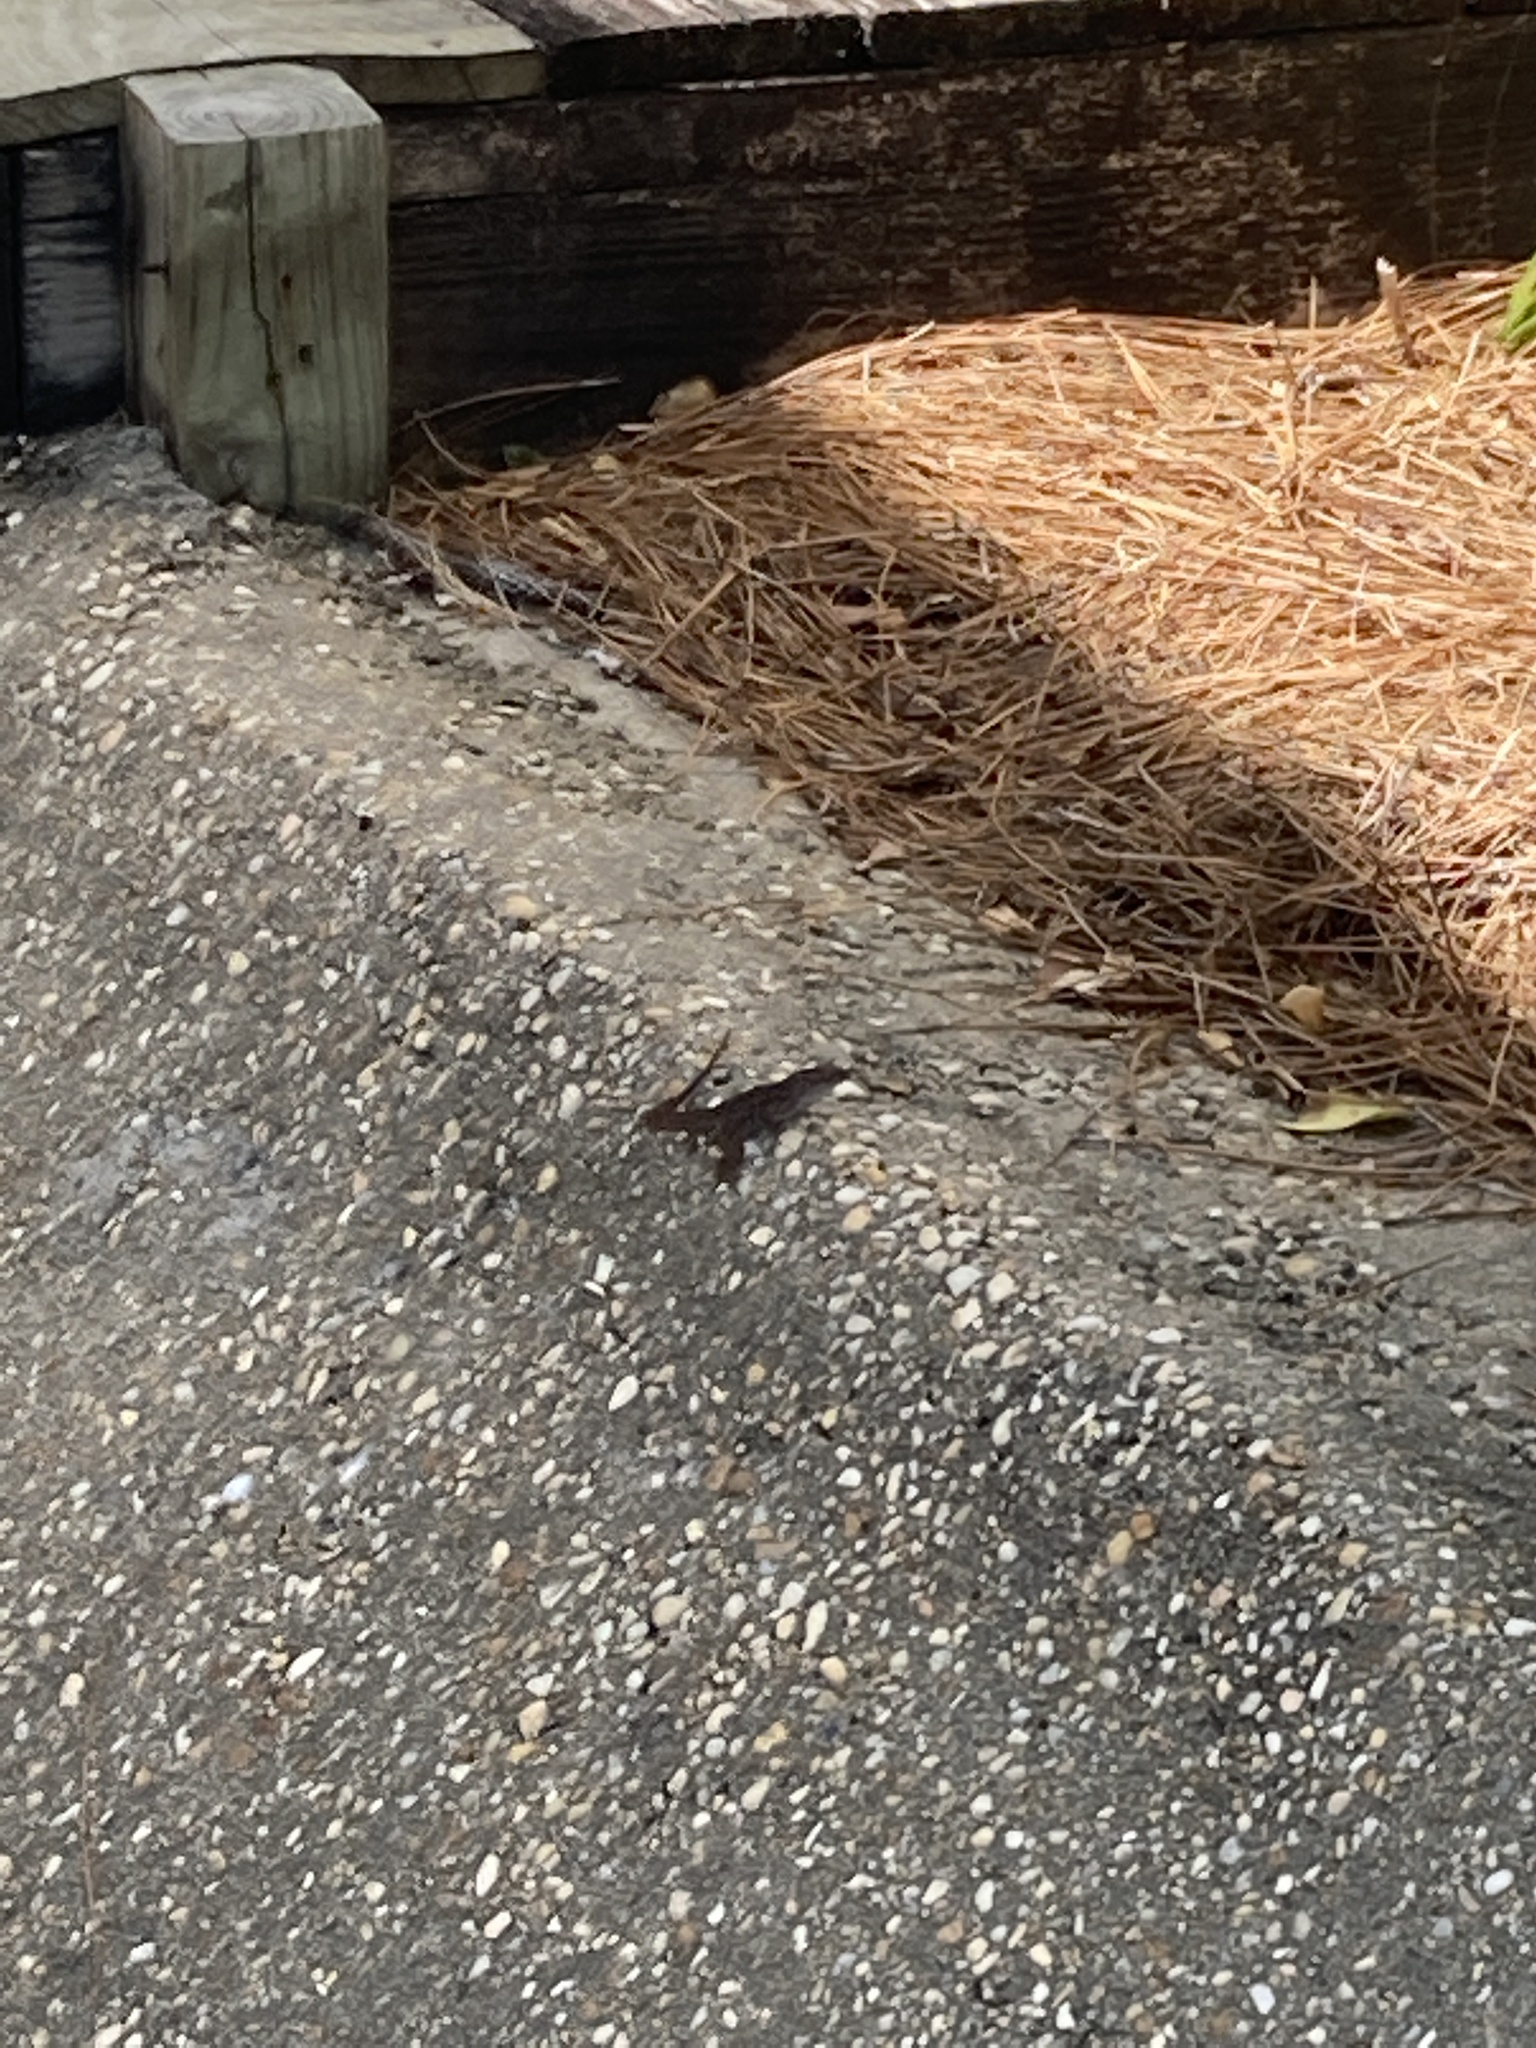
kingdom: Animalia
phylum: Chordata
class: Squamata
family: Dactyloidae
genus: Anolis
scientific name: Anolis sagrei
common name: Brown anole
